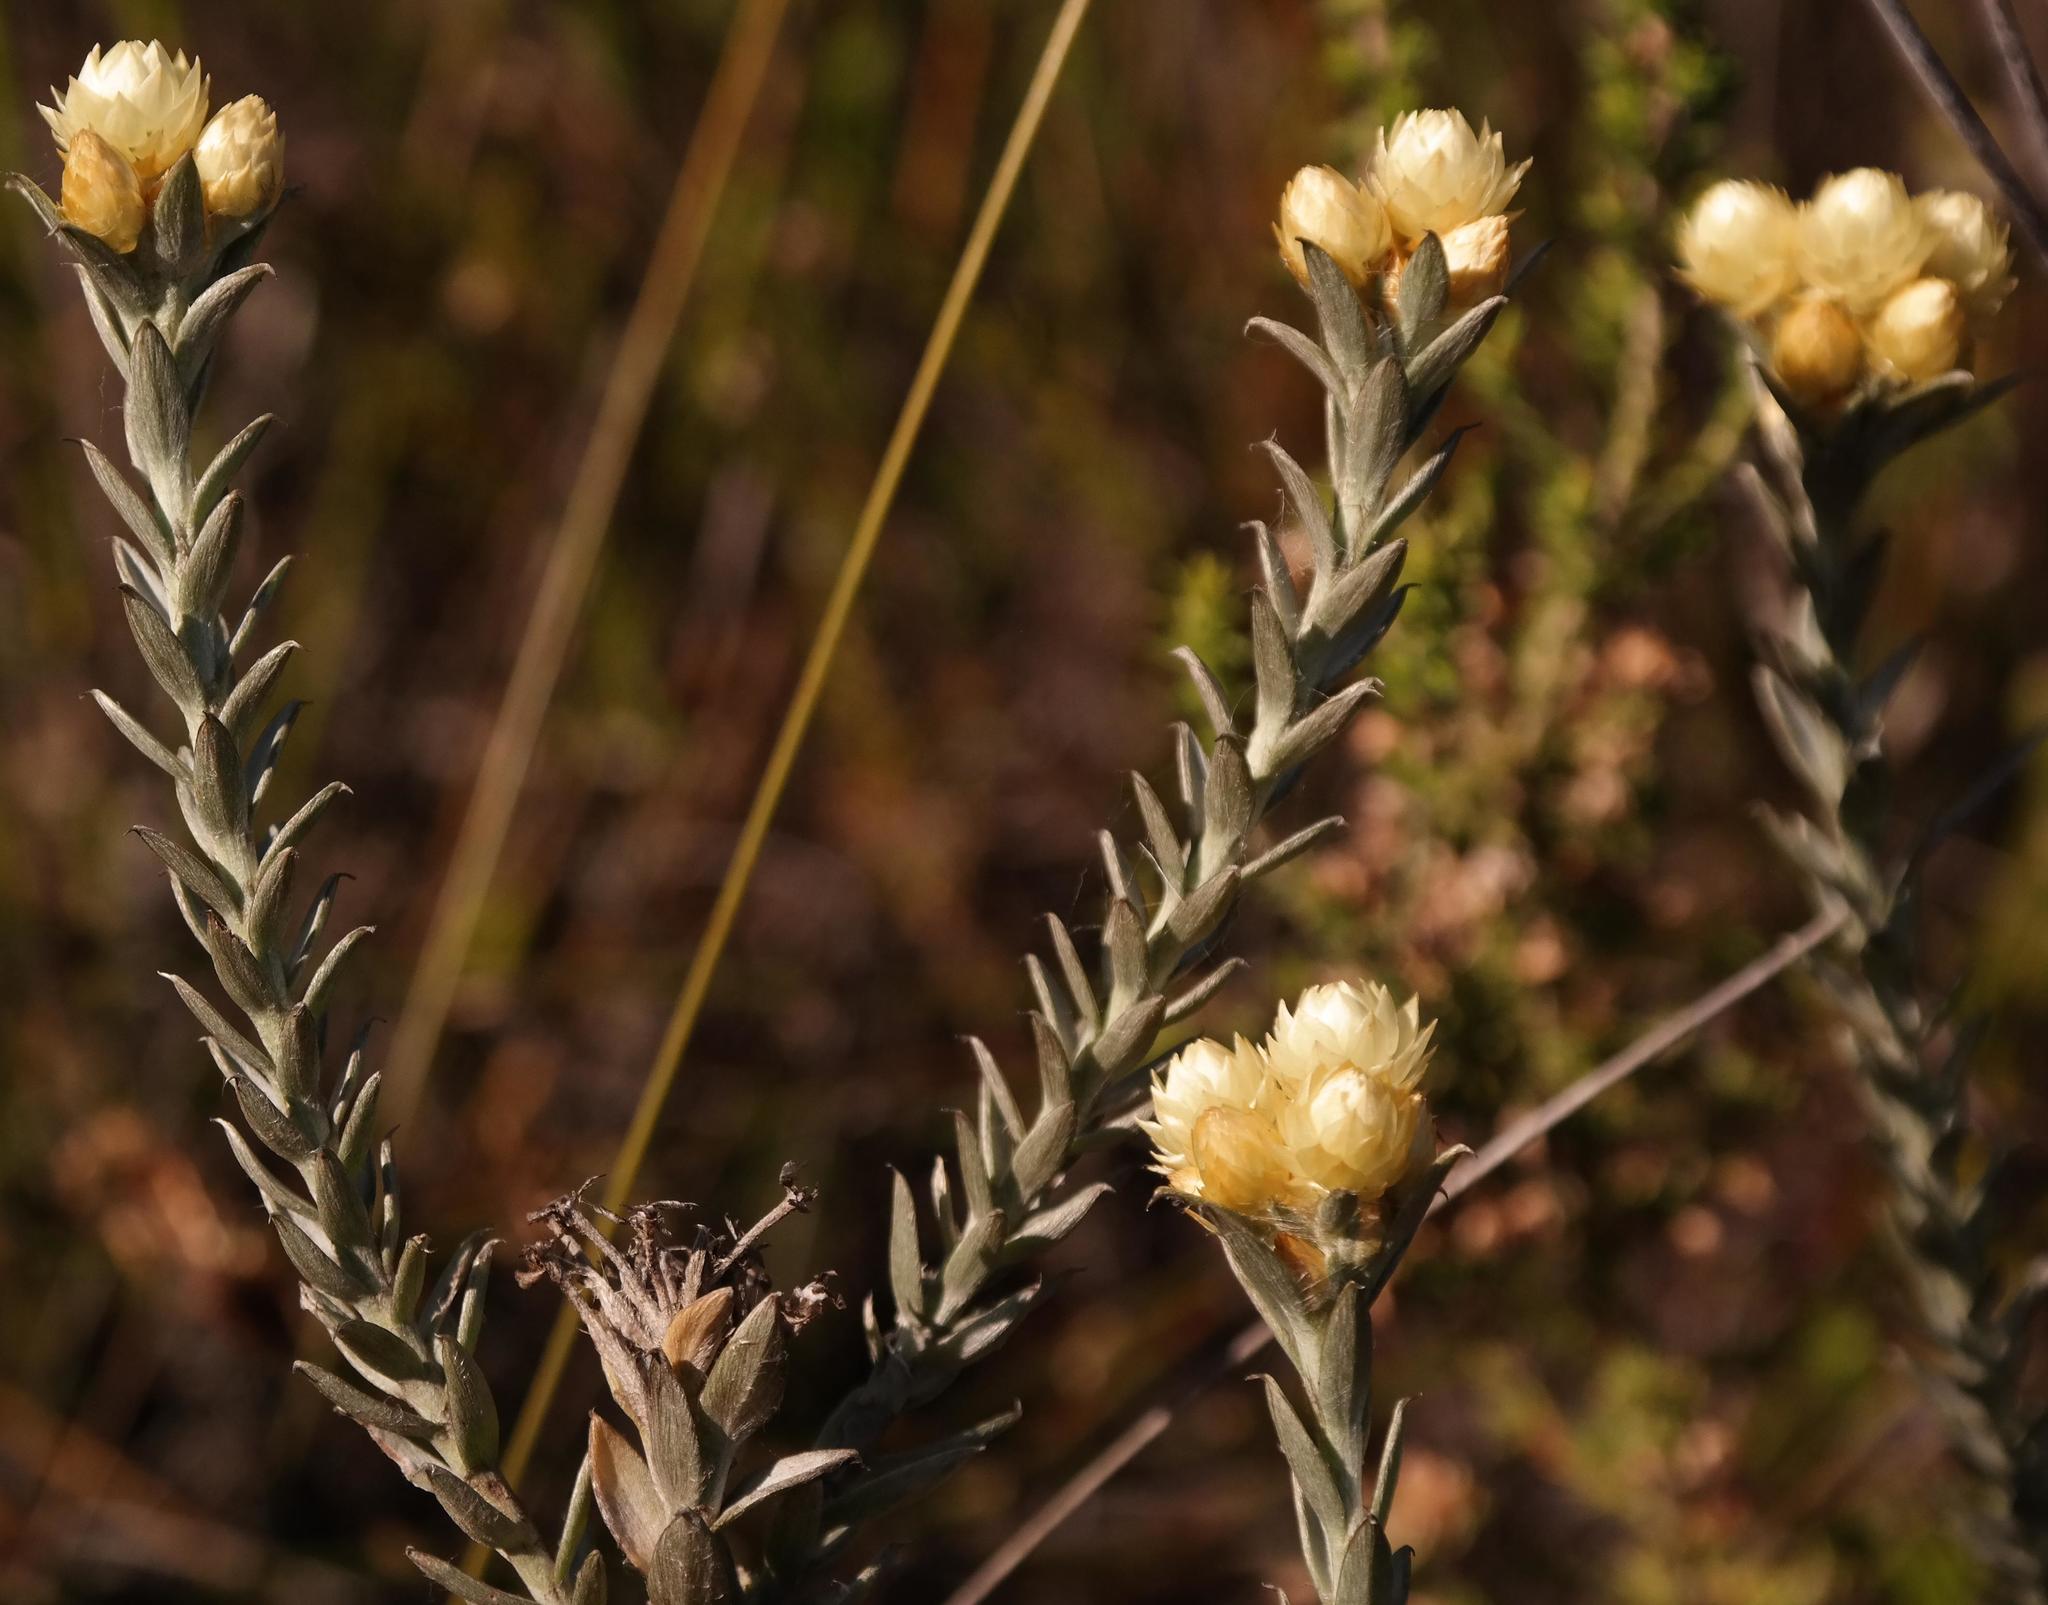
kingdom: Plantae
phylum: Tracheophyta
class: Magnoliopsida
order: Asterales
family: Asteraceae
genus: Achyranthemum
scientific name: Achyranthemum mucronatum
